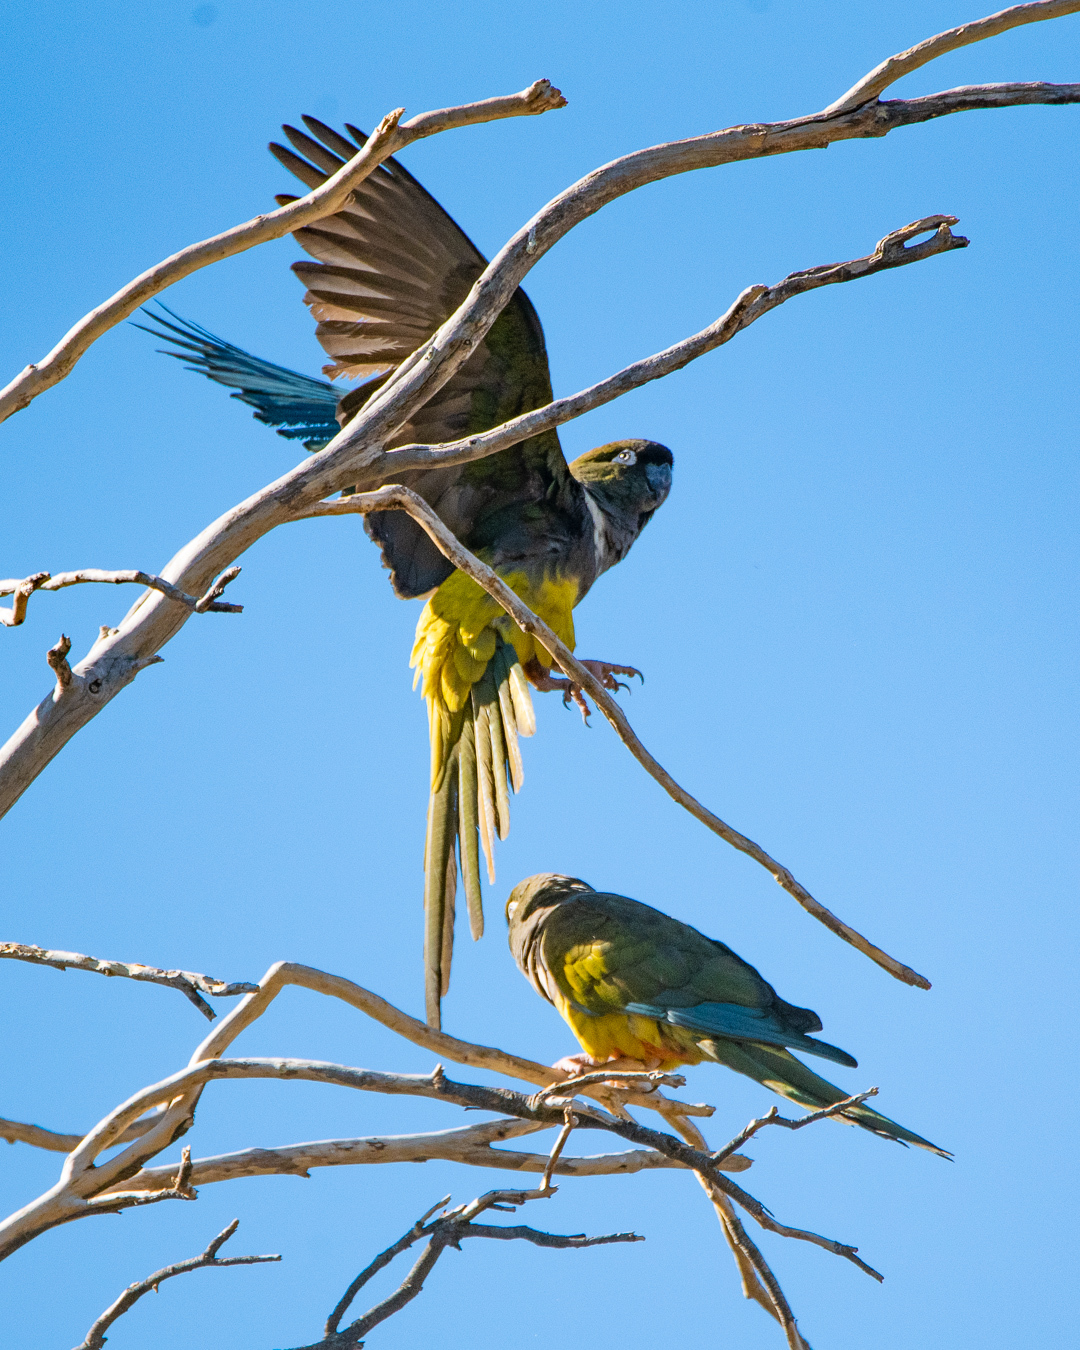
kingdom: Animalia
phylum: Chordata
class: Aves
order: Psittaciformes
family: Psittacidae
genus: Cyanoliseus
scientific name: Cyanoliseus patagonus
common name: Burrowing parrot
